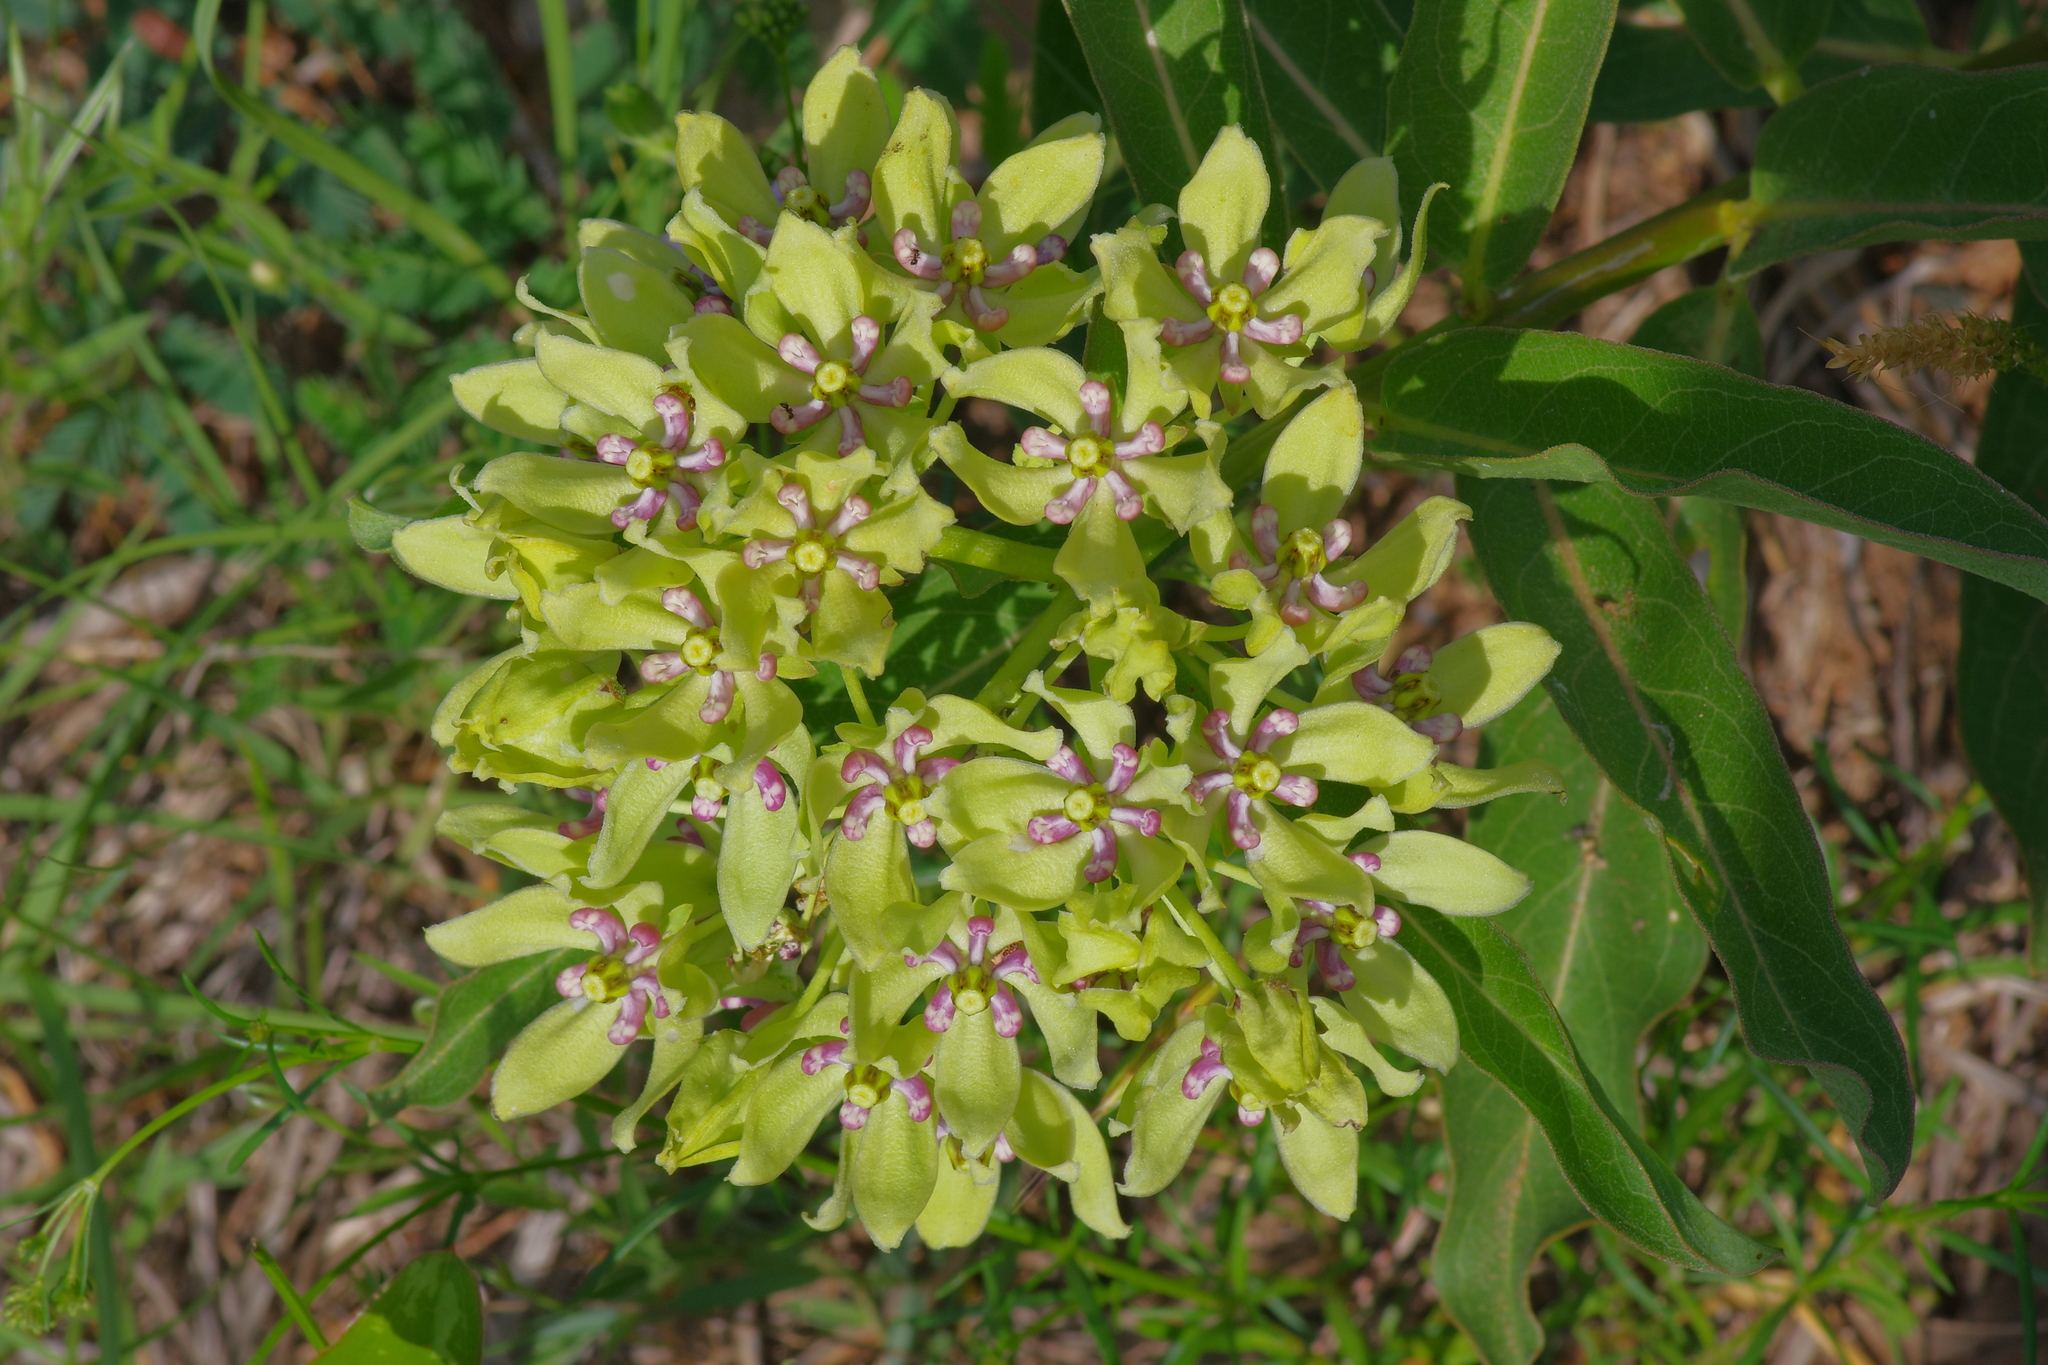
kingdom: Plantae
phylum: Tracheophyta
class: Magnoliopsida
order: Gentianales
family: Apocynaceae
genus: Asclepias
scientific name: Asclepias viridis
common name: Antelope-horns
